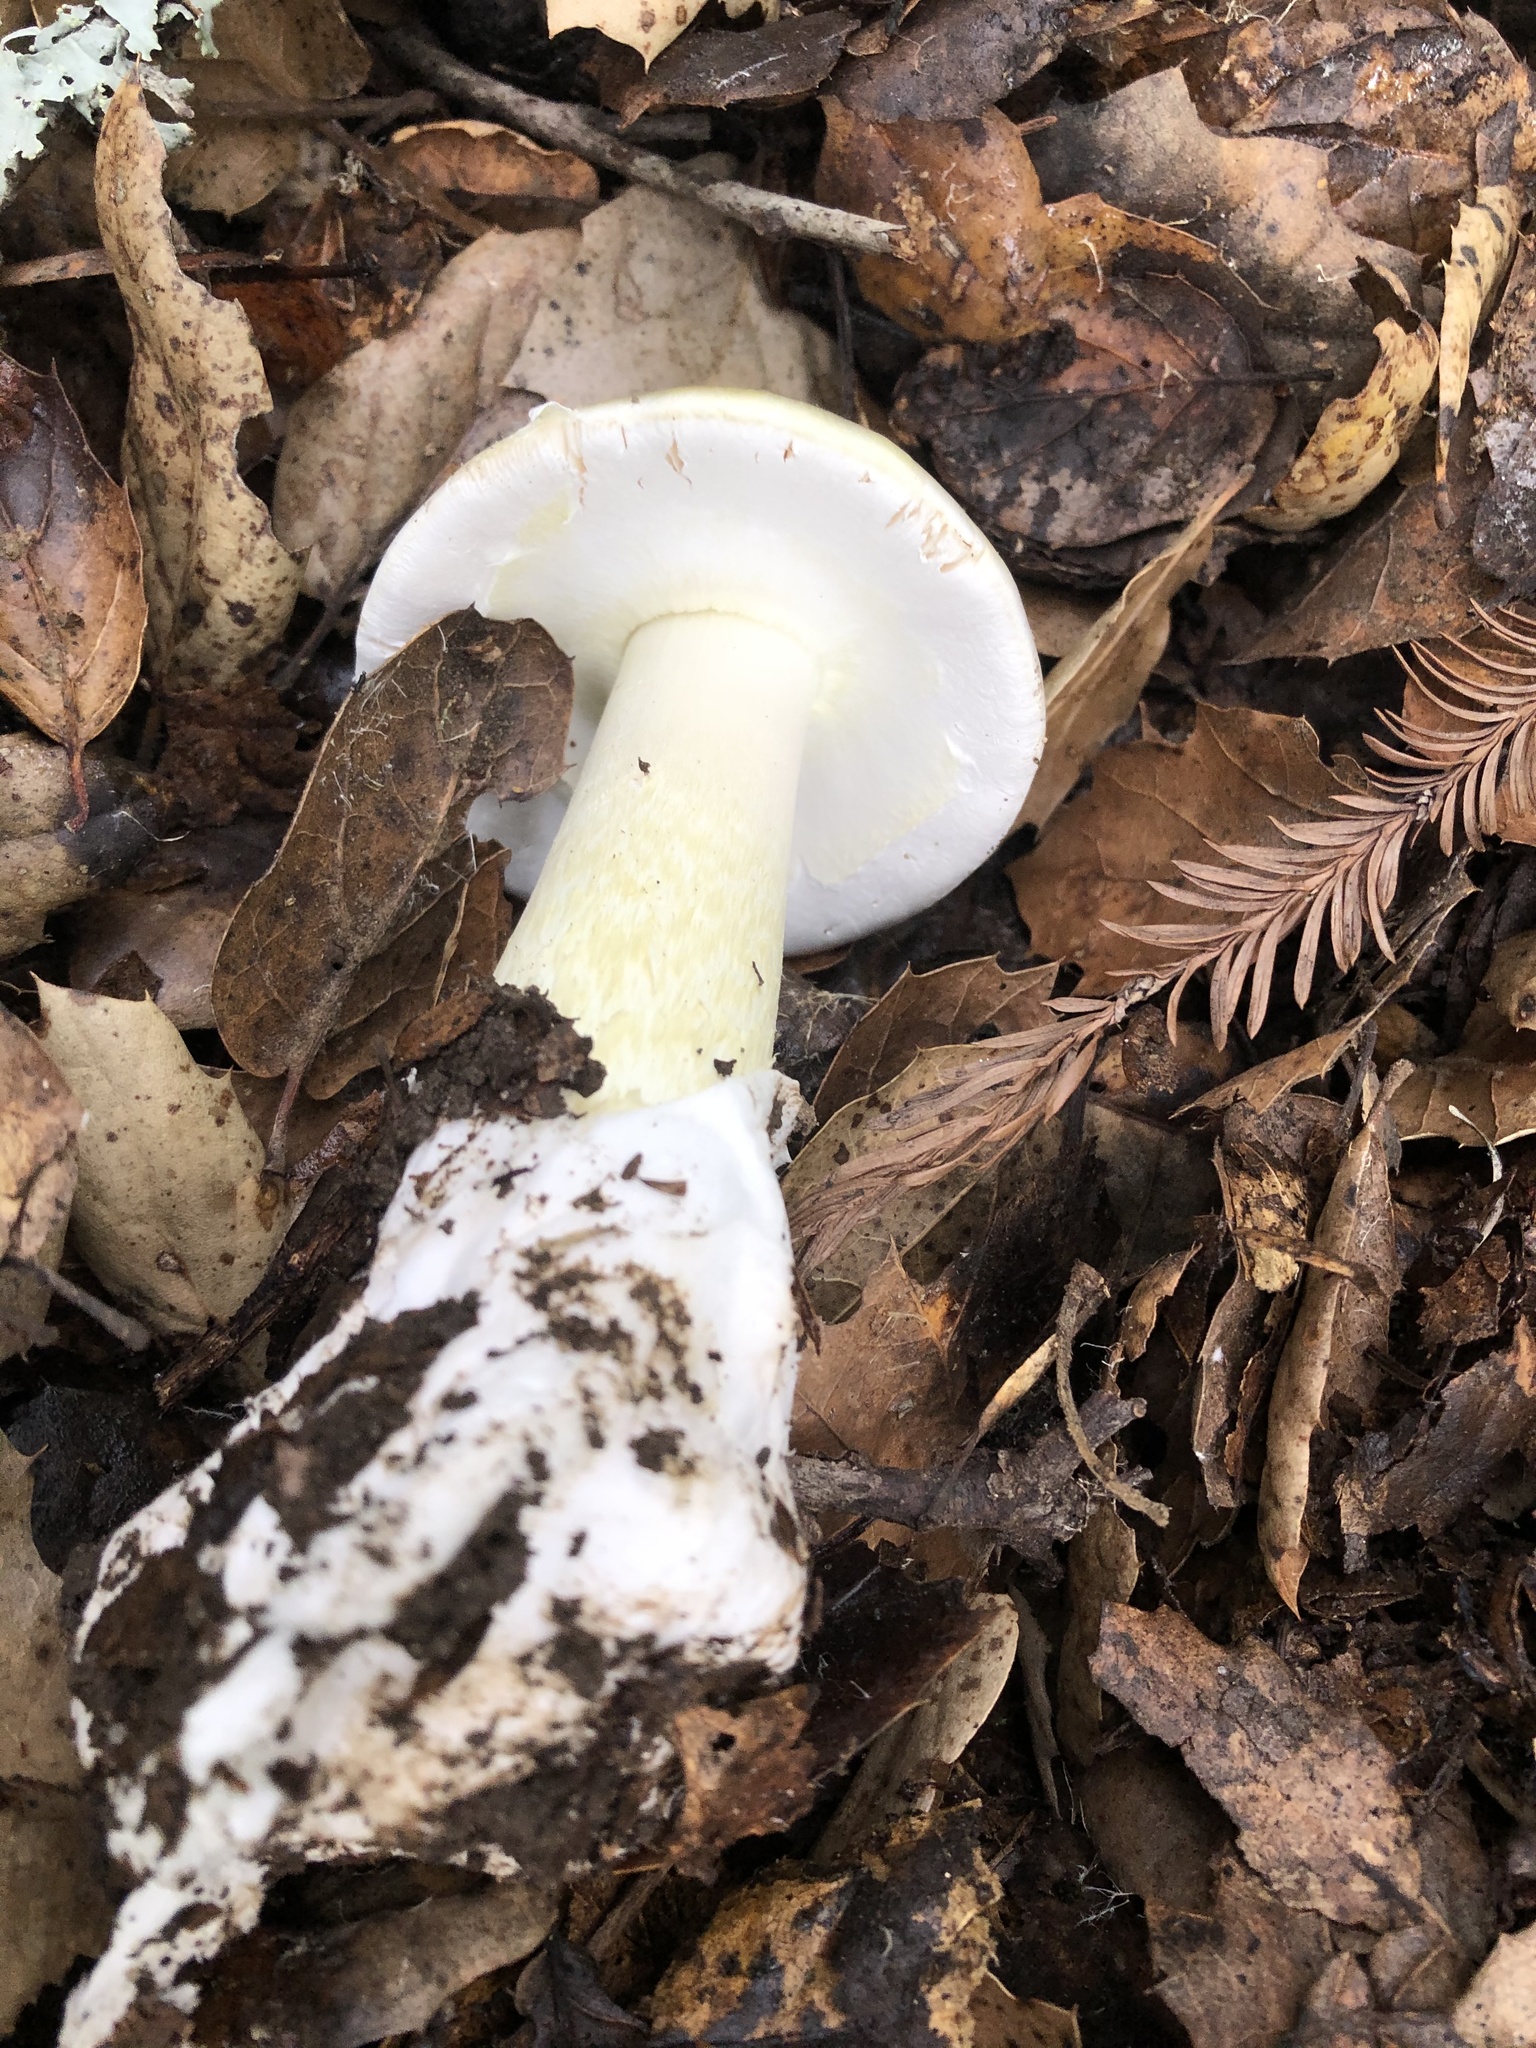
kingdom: Fungi
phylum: Basidiomycota
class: Agaricomycetes
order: Agaricales
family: Amanitaceae
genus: Amanita
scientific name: Amanita phalloides
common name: Death cap
